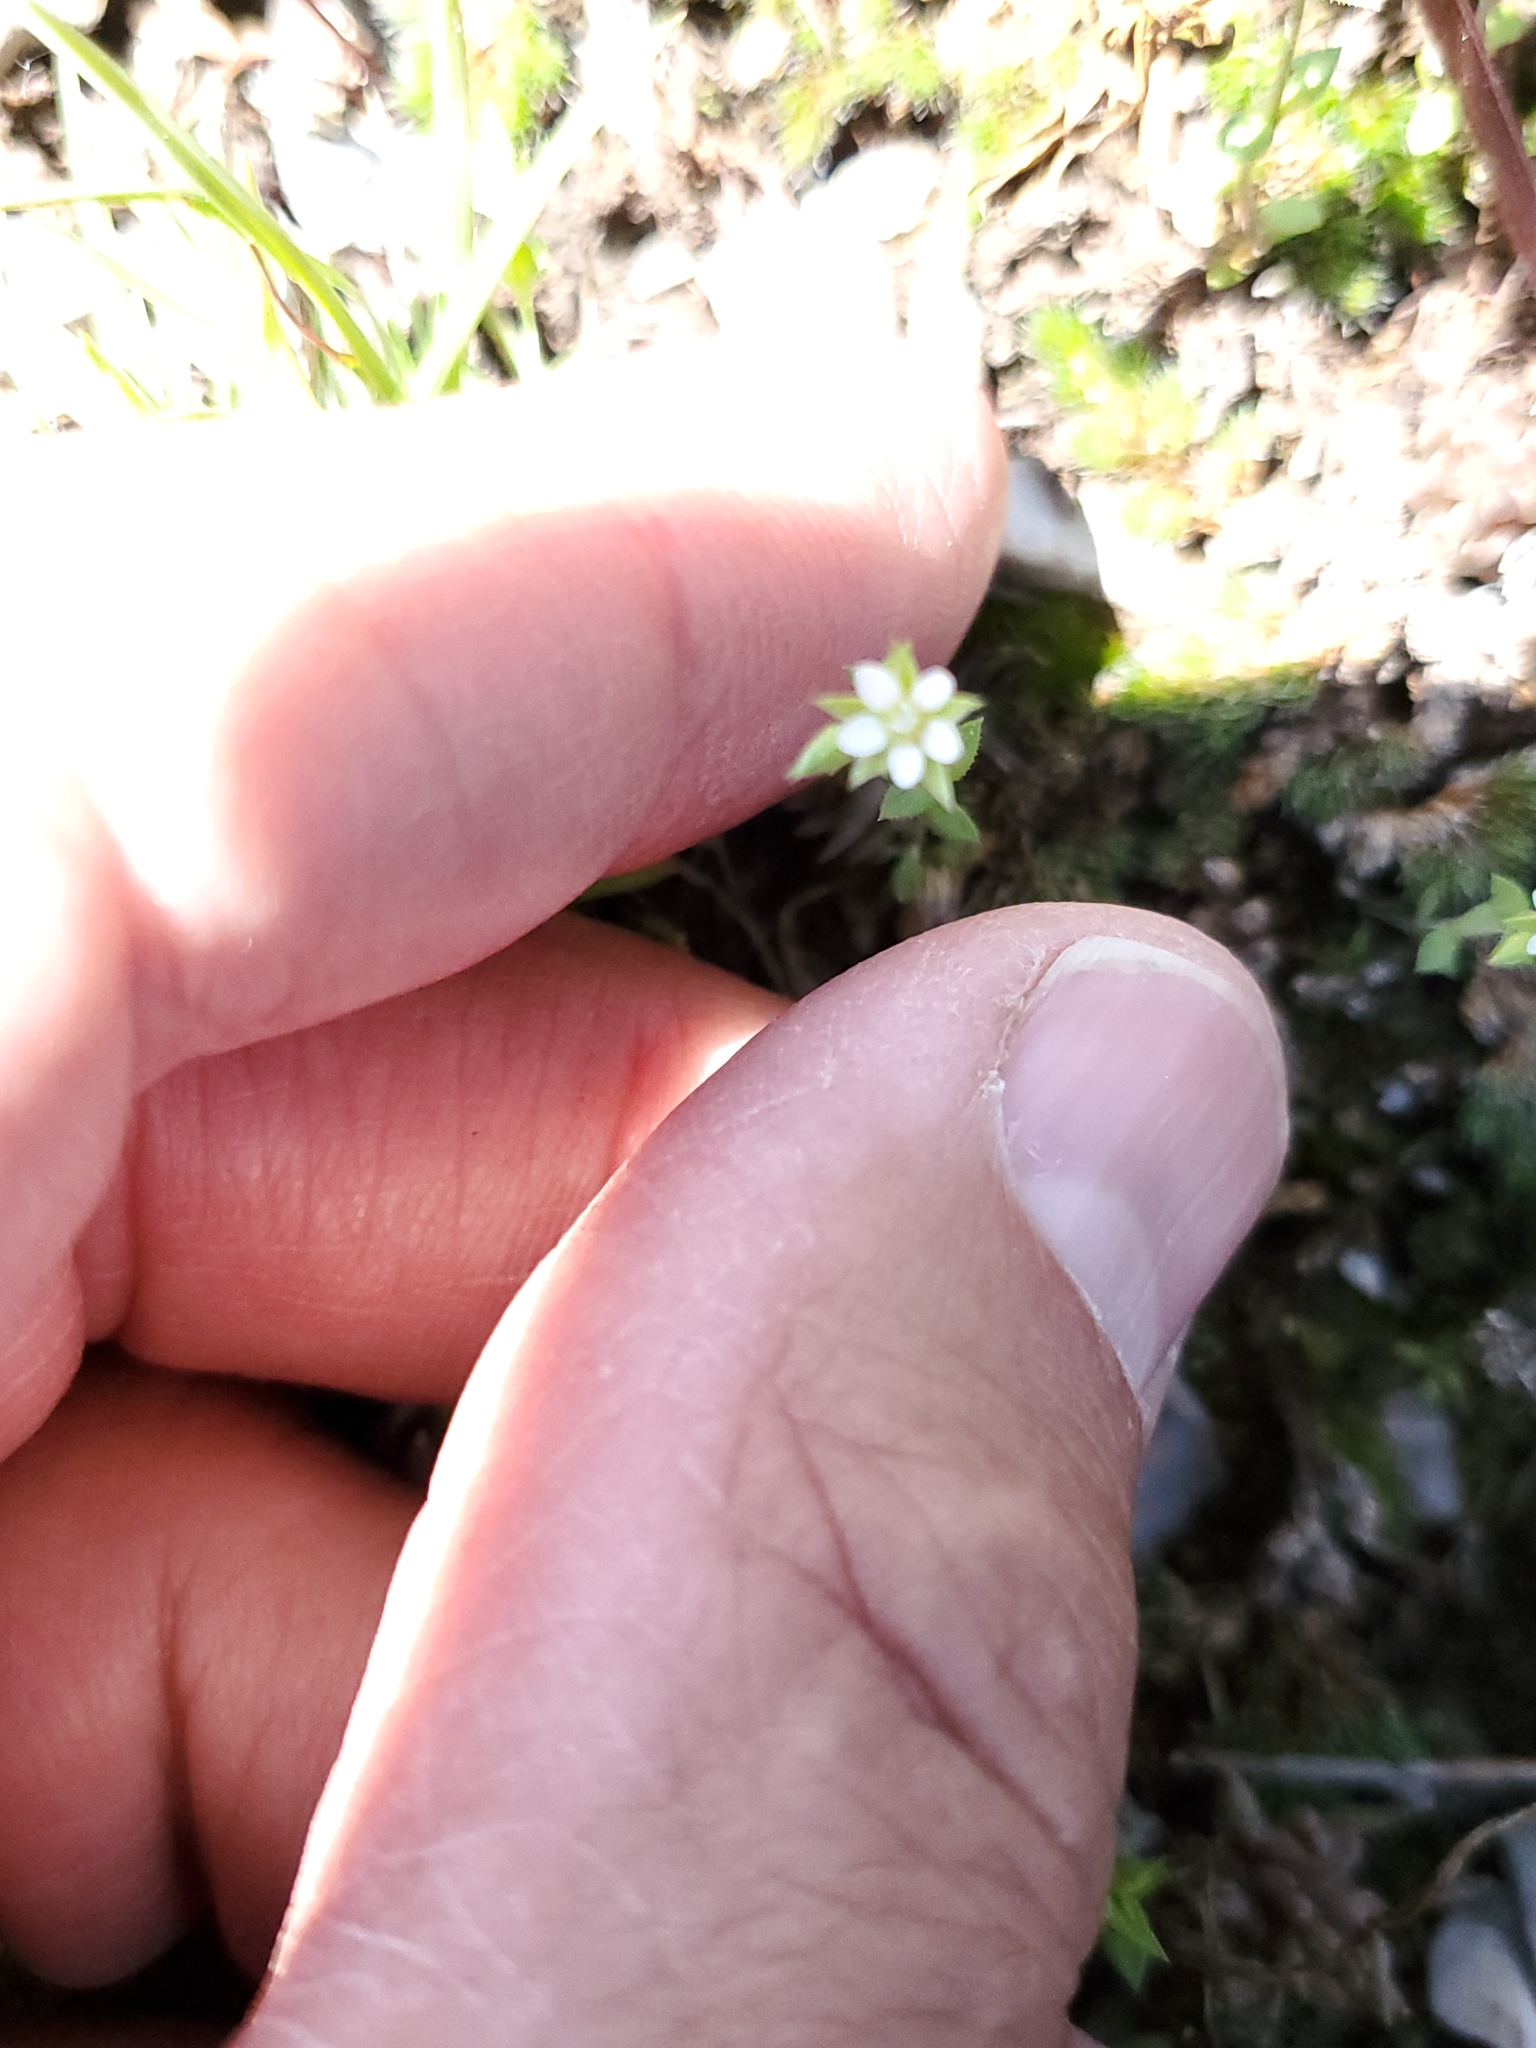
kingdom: Plantae
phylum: Tracheophyta
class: Magnoliopsida
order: Caryophyllales
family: Caryophyllaceae
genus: Arenaria
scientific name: Arenaria serpyllifolia
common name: Thyme-leaved sandwort
